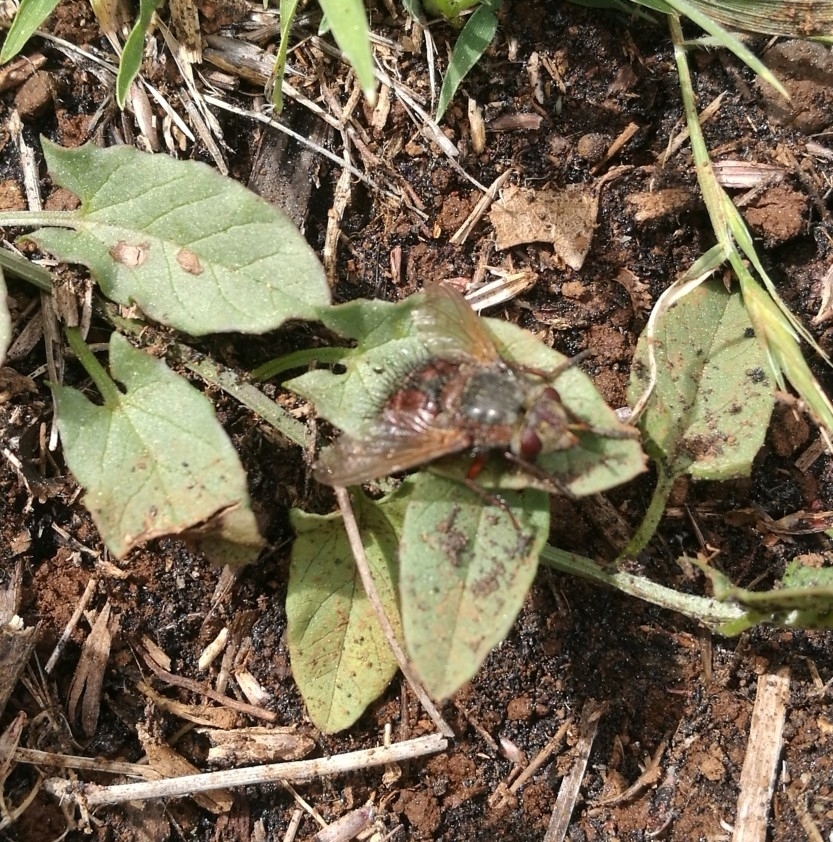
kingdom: Animalia
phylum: Arthropoda
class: Insecta
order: Diptera
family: Tachinidae
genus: Tachina
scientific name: Tachina canariensis
